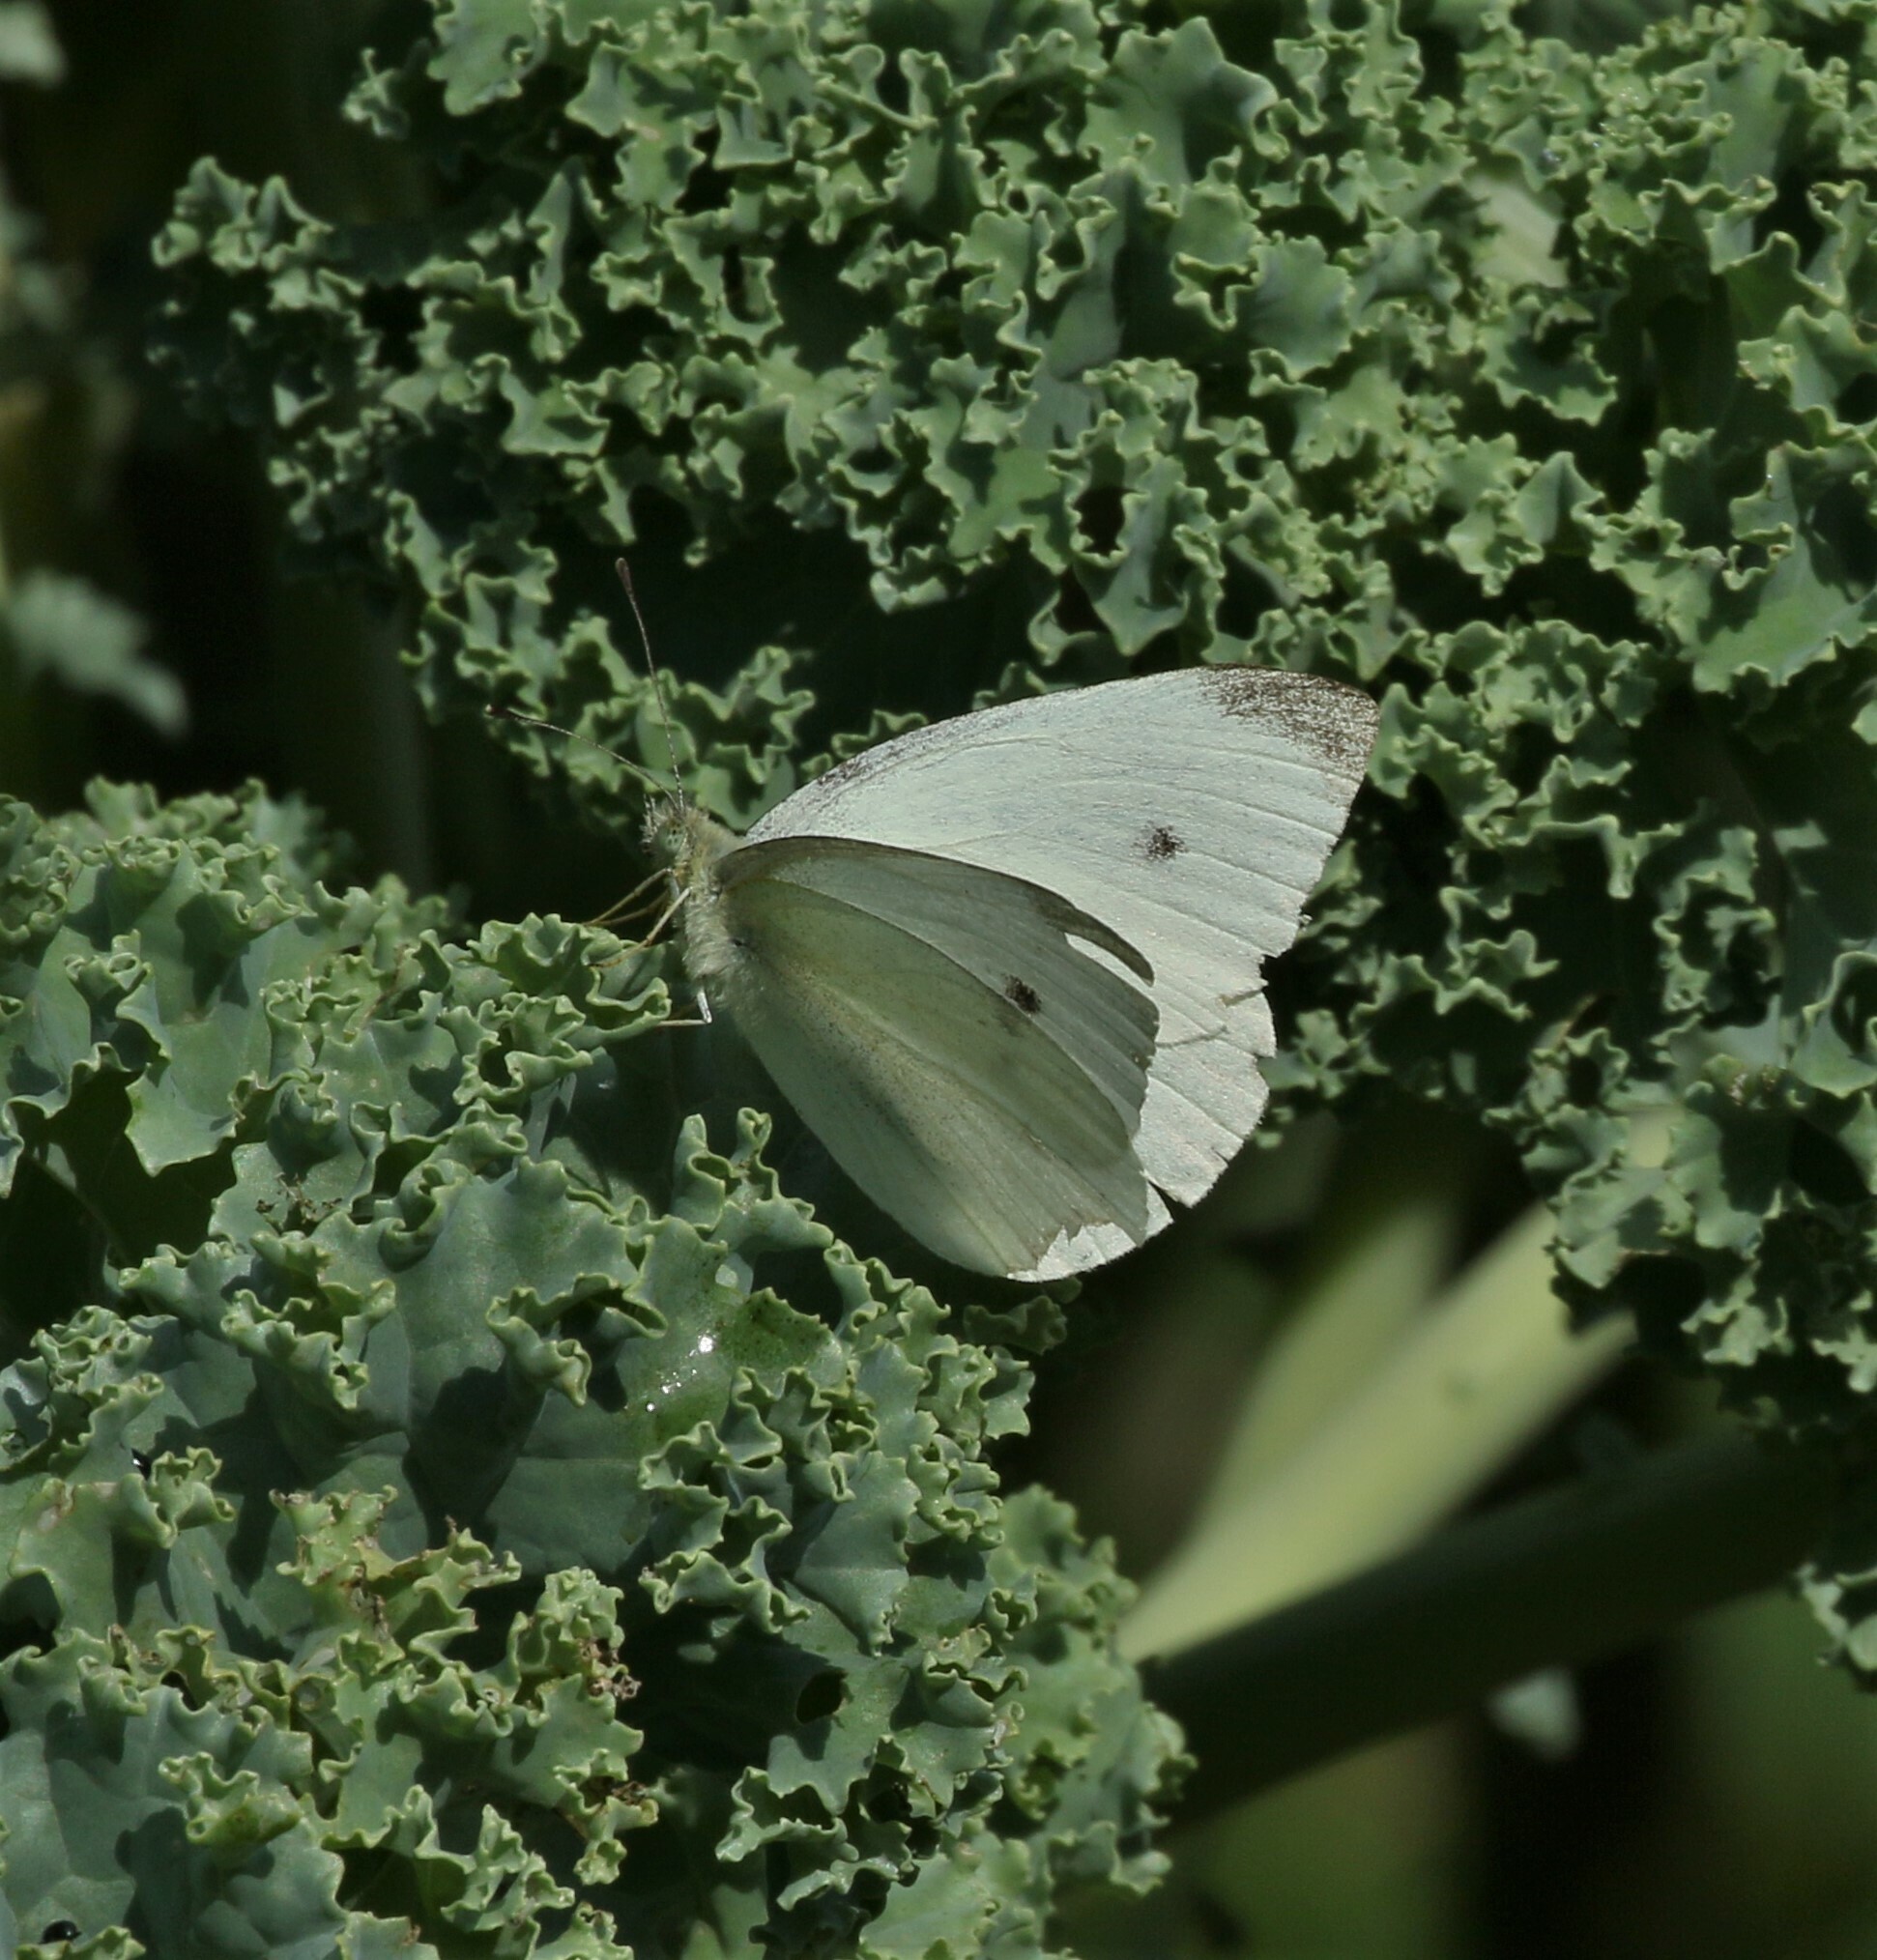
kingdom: Animalia
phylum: Arthropoda
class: Insecta
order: Lepidoptera
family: Pieridae
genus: Pieris
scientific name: Pieris rapae
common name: Small white
